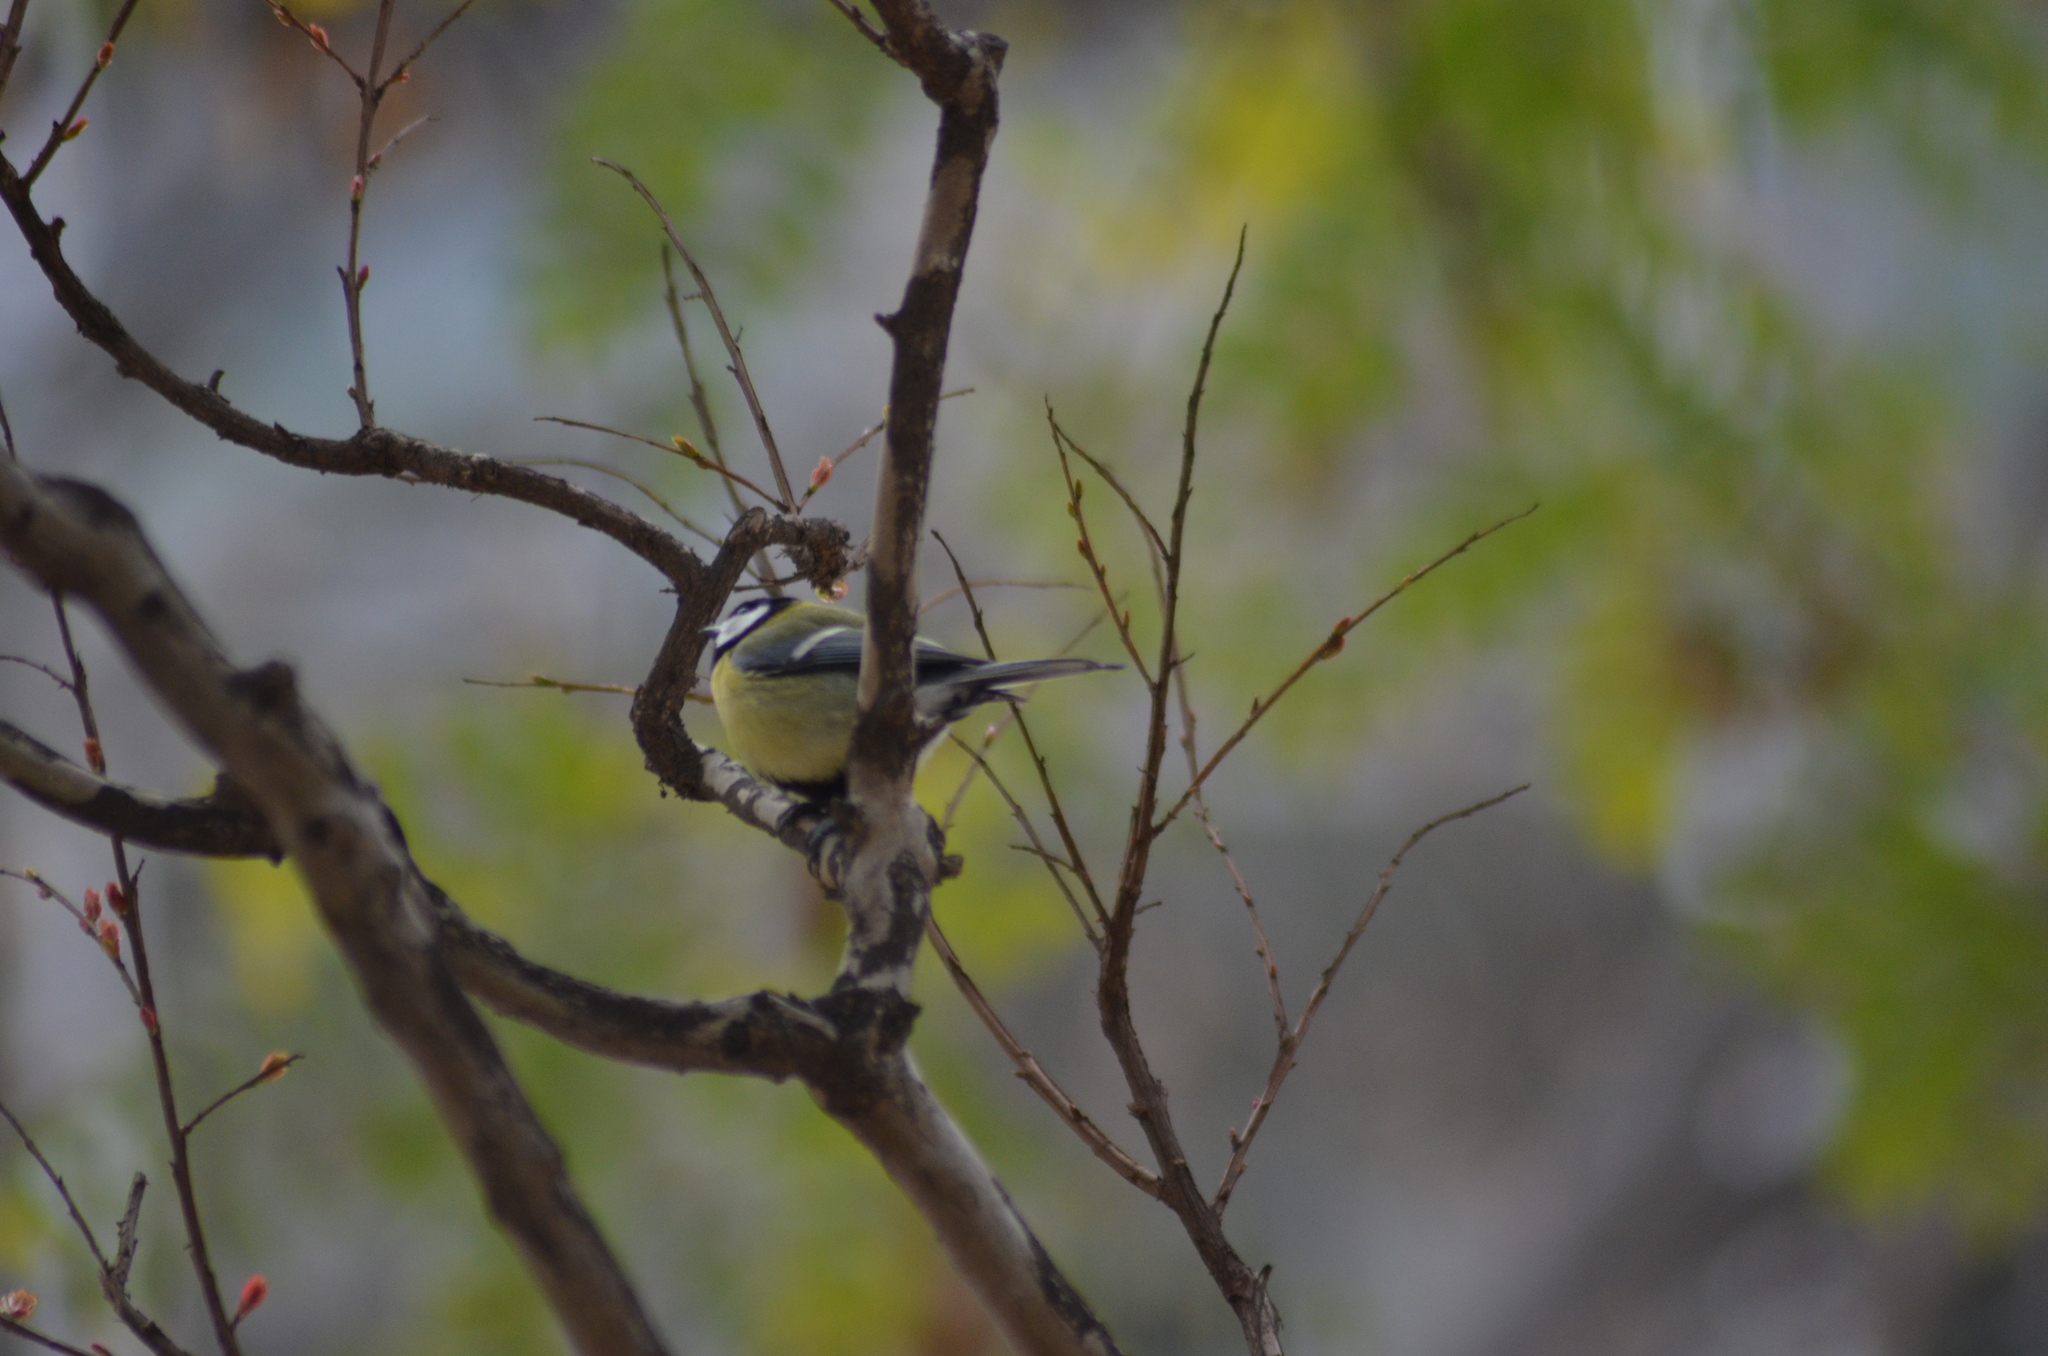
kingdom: Animalia
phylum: Chordata
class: Aves
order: Passeriformes
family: Paridae
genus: Parus
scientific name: Parus major
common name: Great tit
